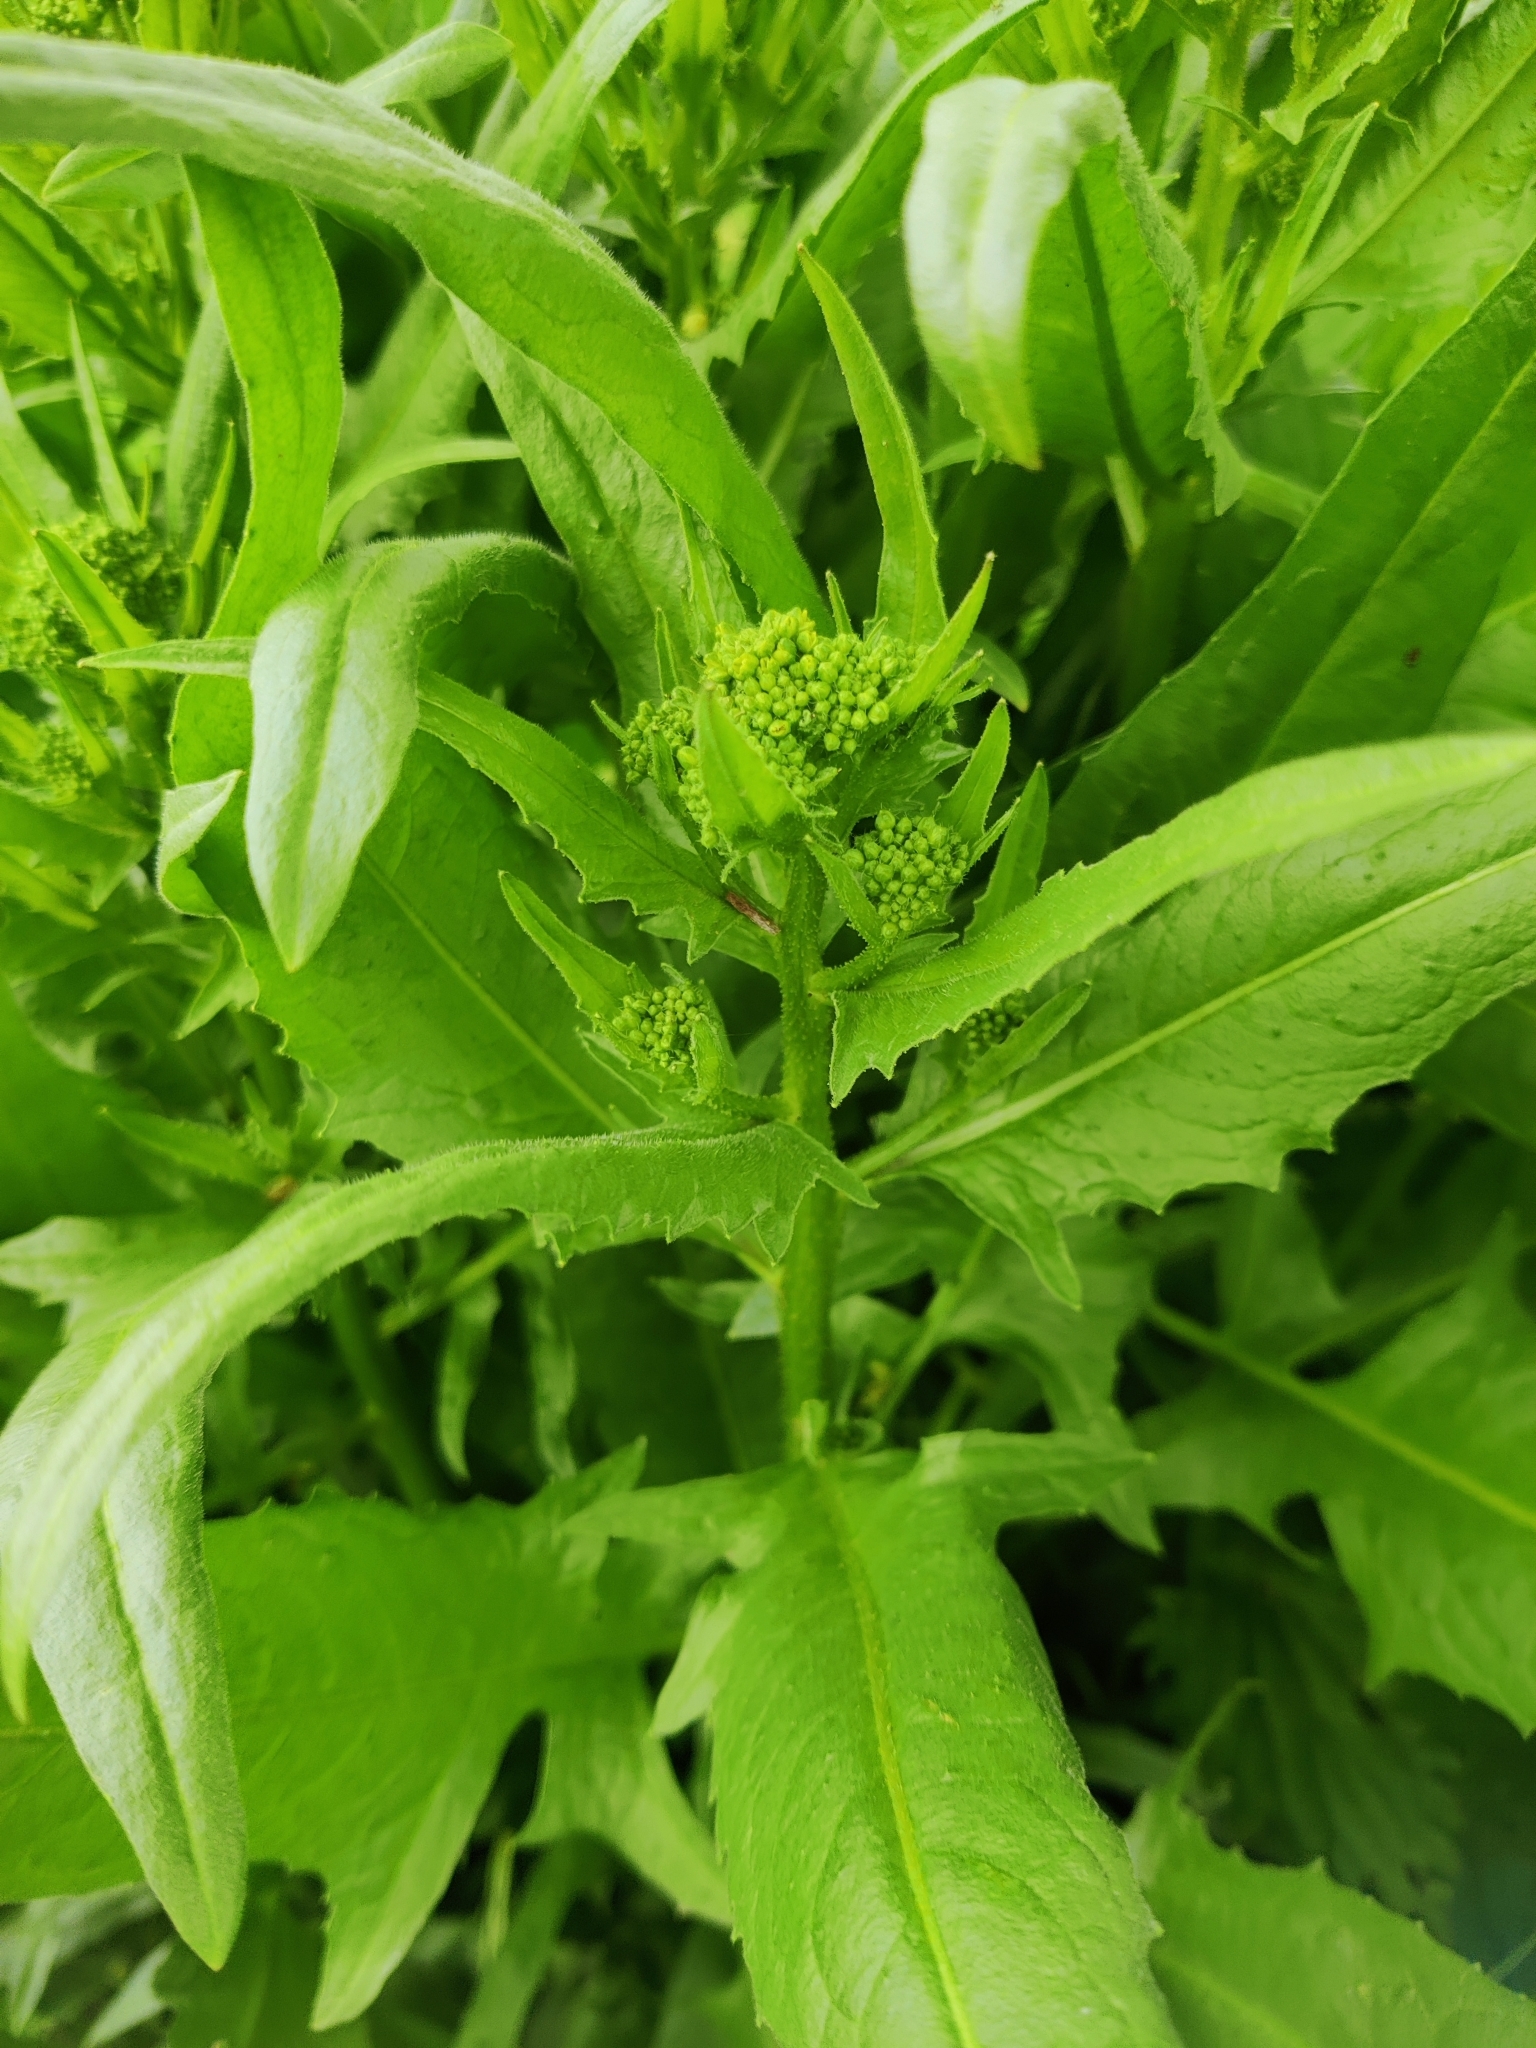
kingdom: Plantae
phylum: Tracheophyta
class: Magnoliopsida
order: Brassicales
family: Brassicaceae
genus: Bunias
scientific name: Bunias orientalis
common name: Warty-cabbage
